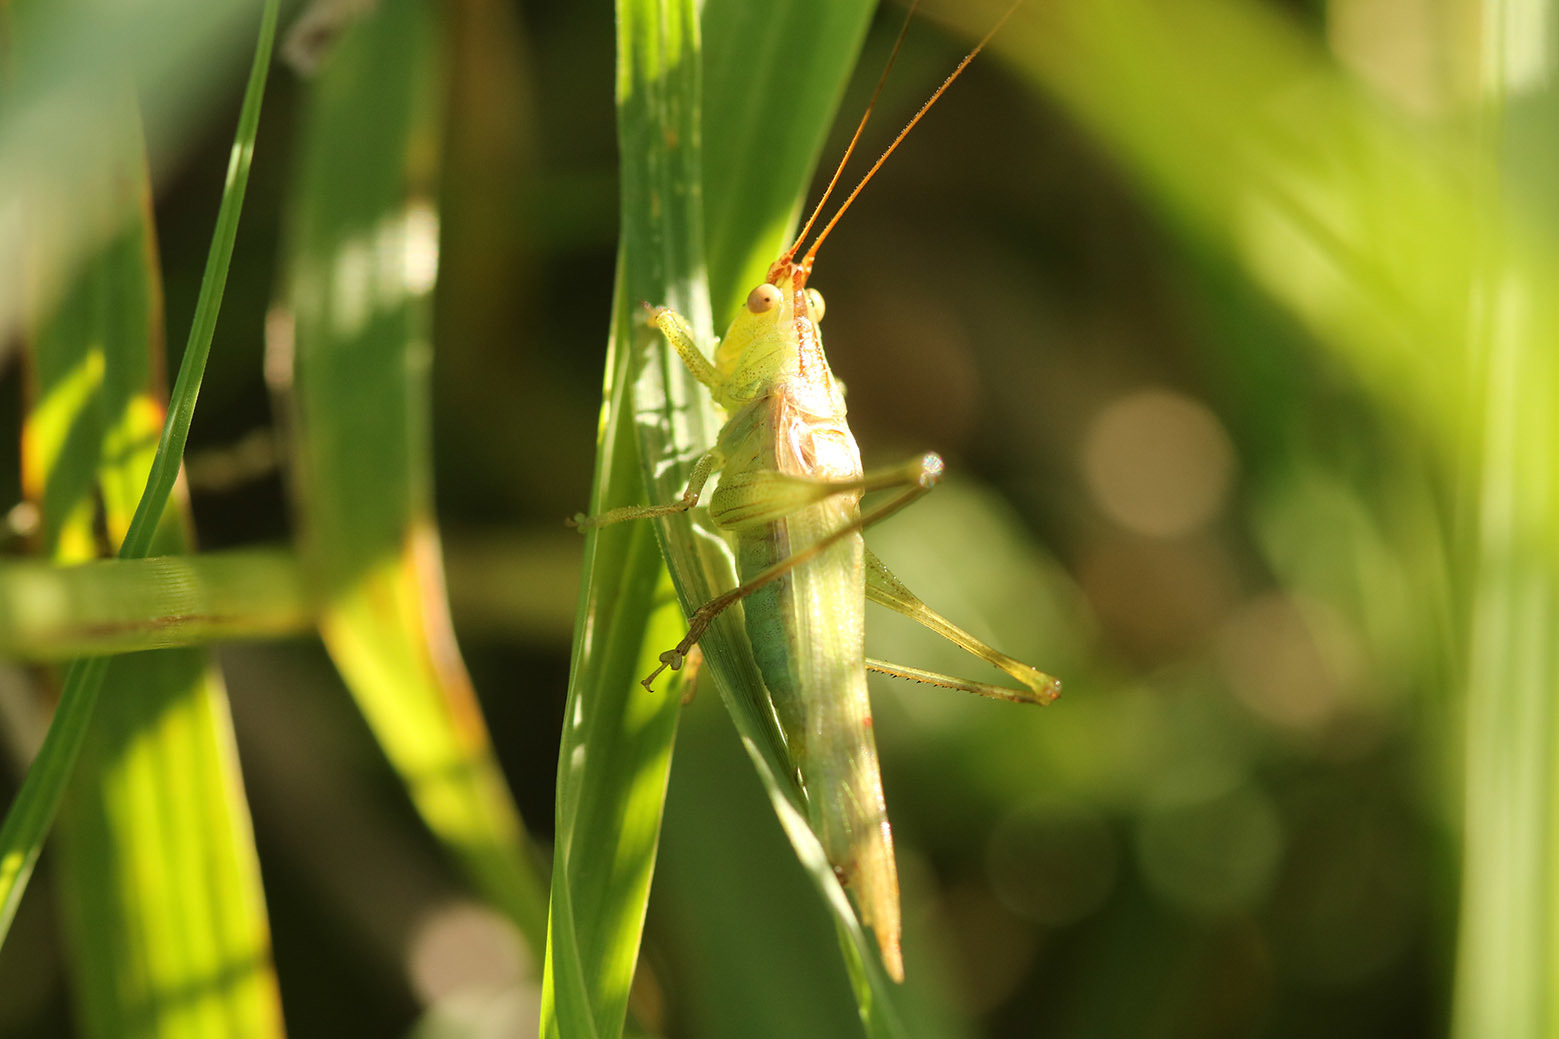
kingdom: Animalia
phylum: Arthropoda
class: Insecta
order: Orthoptera
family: Tettigoniidae
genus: Conocephalus
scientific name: Conocephalus longipes
